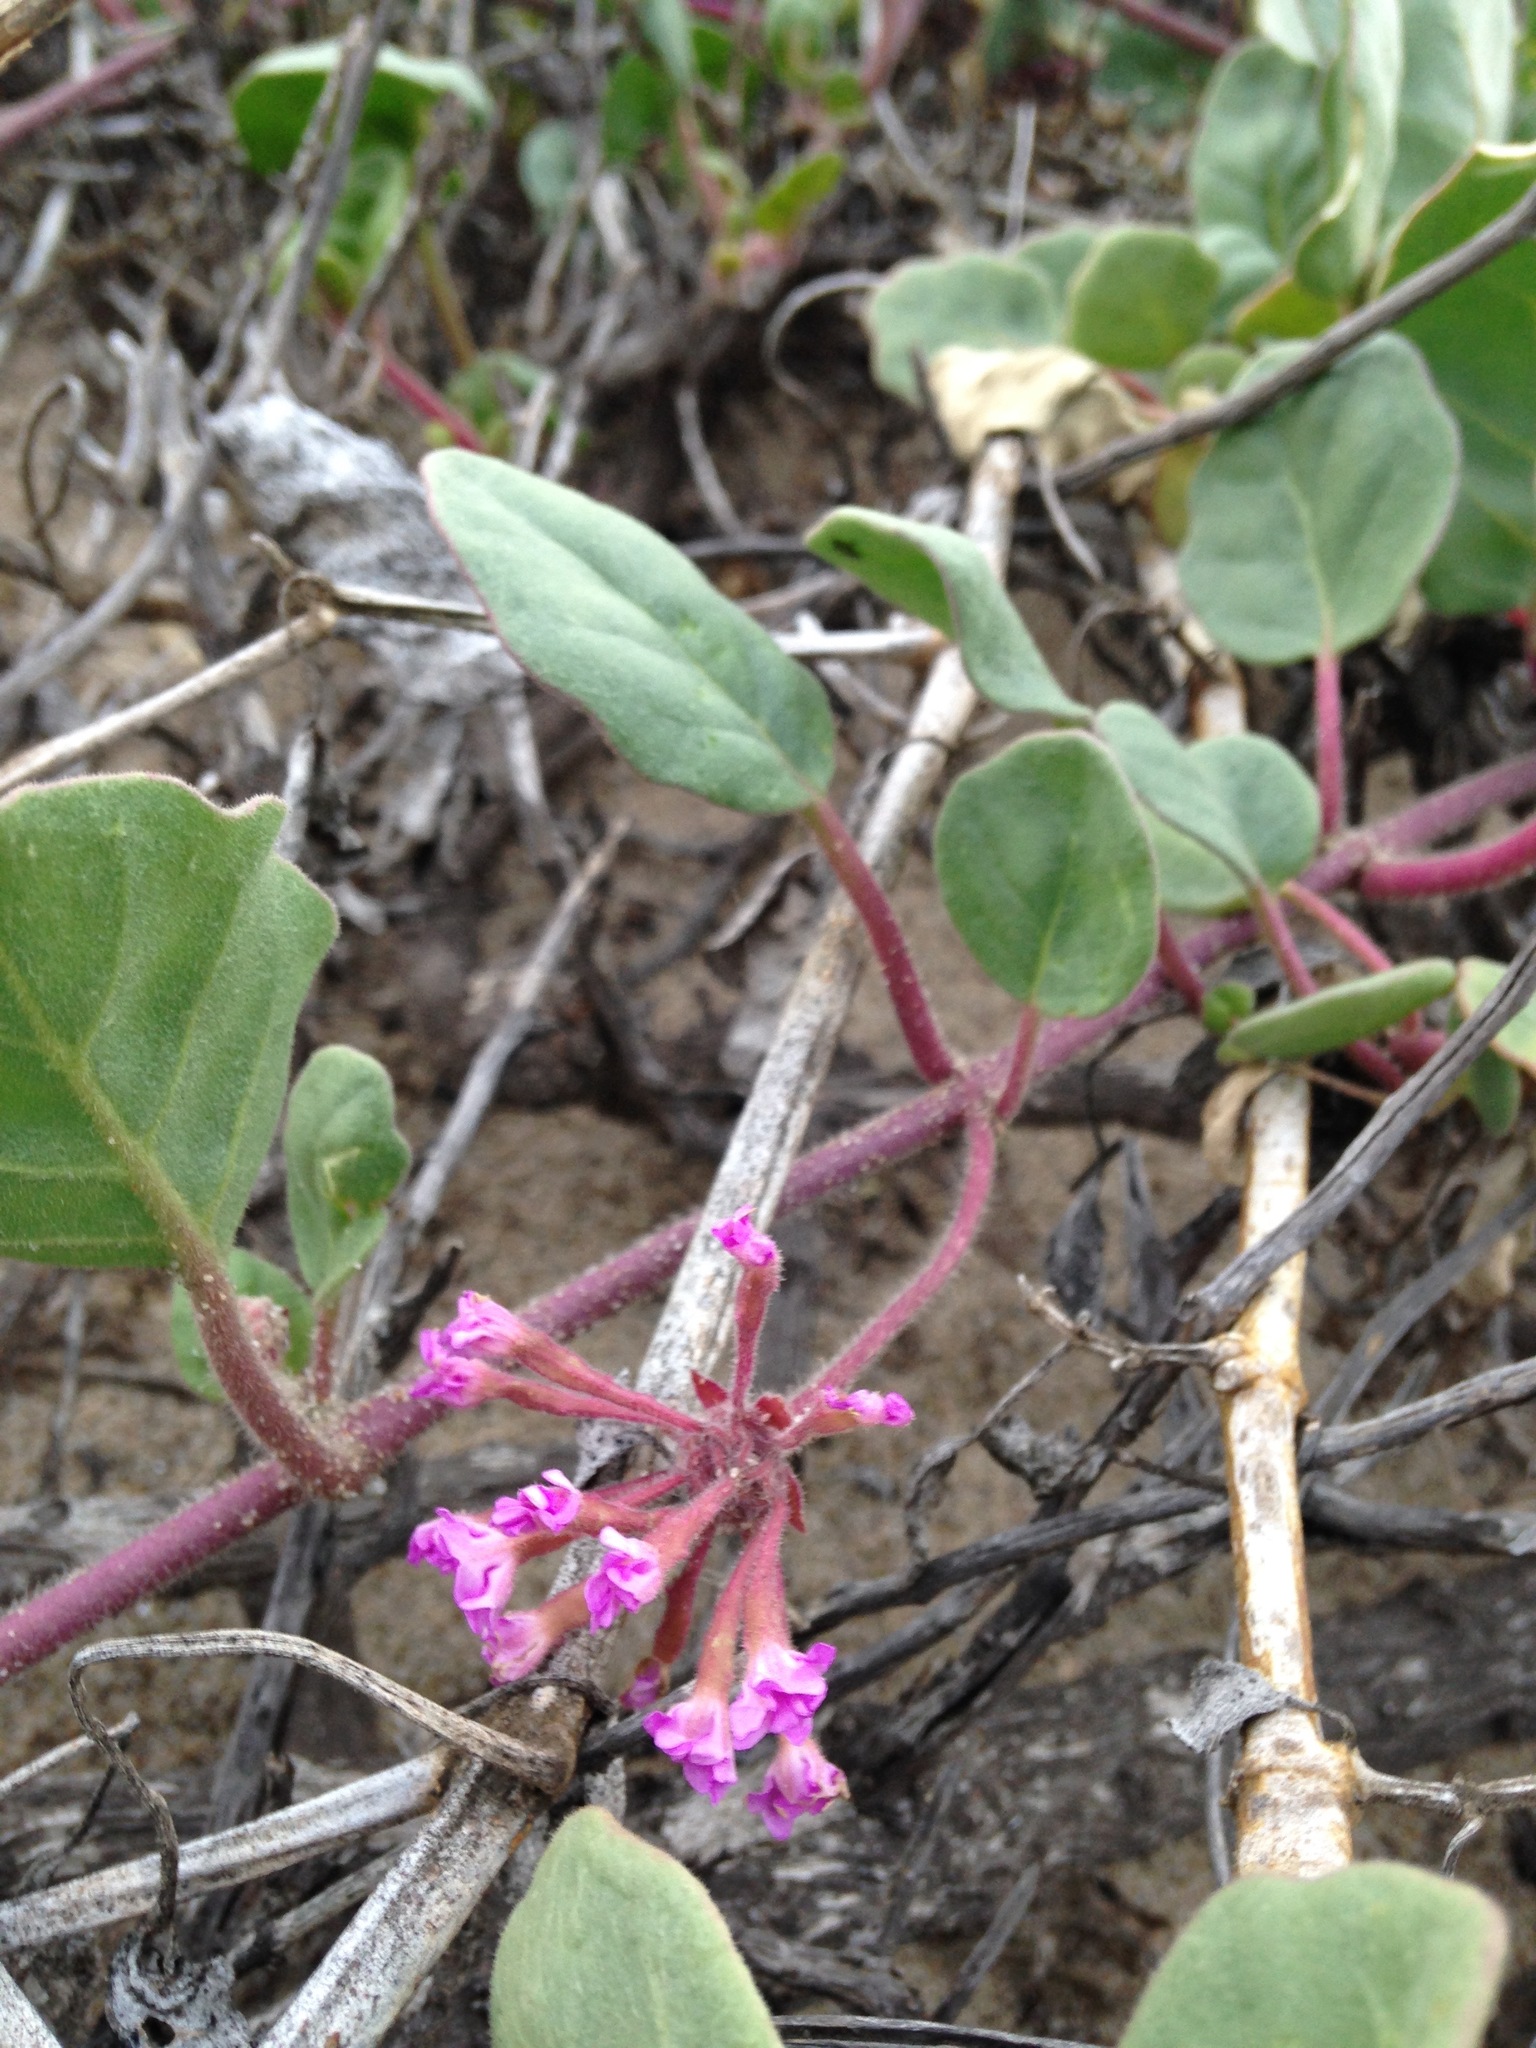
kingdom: Plantae
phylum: Tracheophyta
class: Magnoliopsida
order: Caryophyllales
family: Nyctaginaceae
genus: Abronia
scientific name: Abronia umbellata
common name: Sand-verbena
